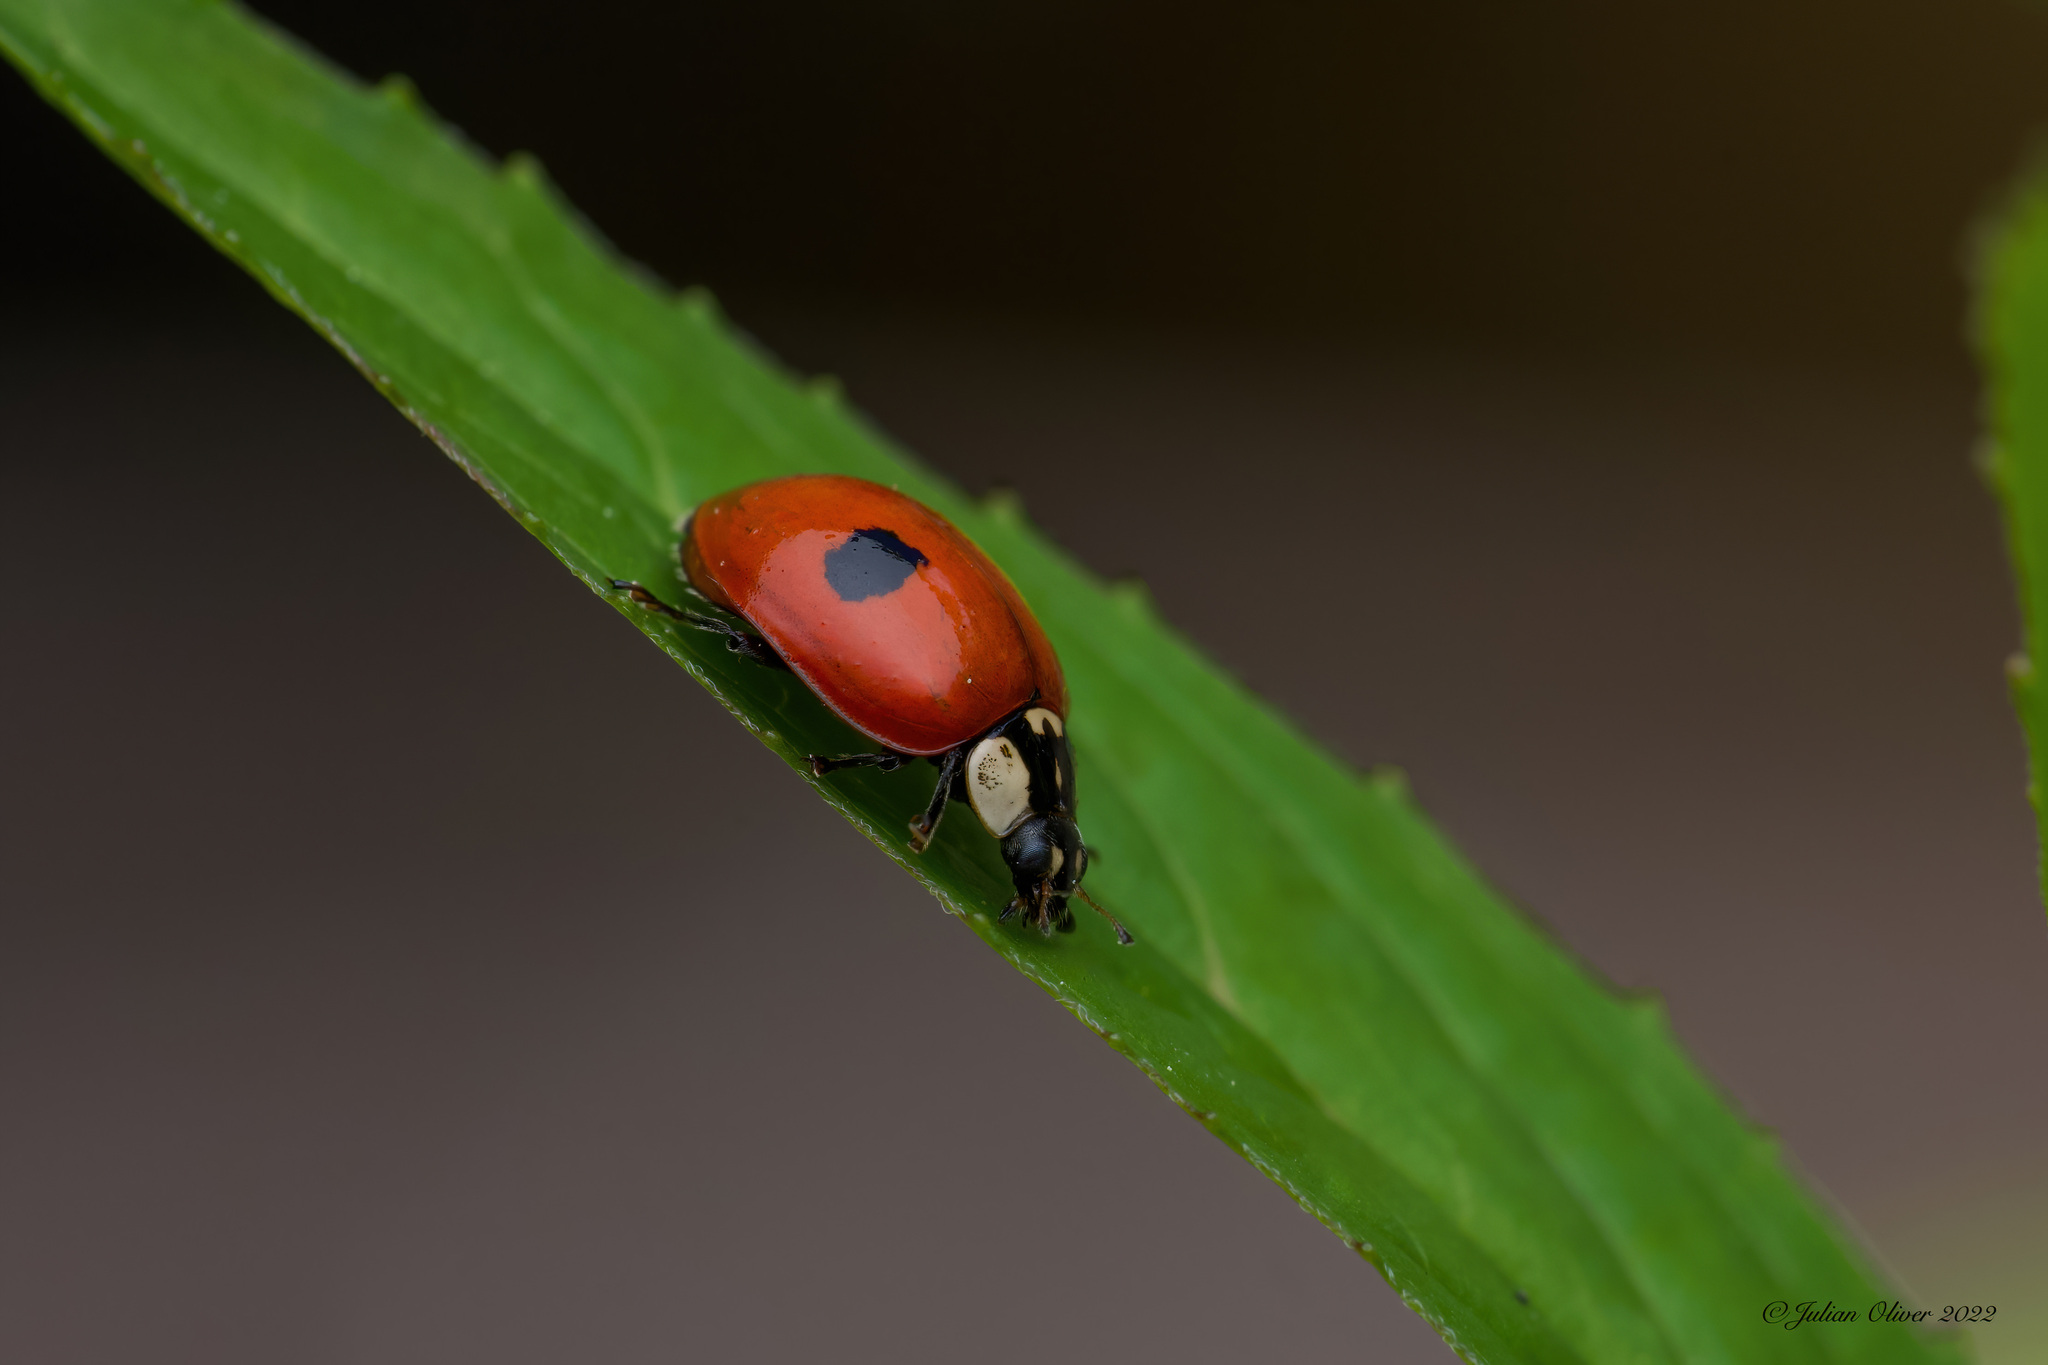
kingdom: Animalia
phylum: Arthropoda
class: Insecta
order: Coleoptera
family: Coccinellidae
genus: Adalia
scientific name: Adalia bipunctata
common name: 2-spot ladybird
